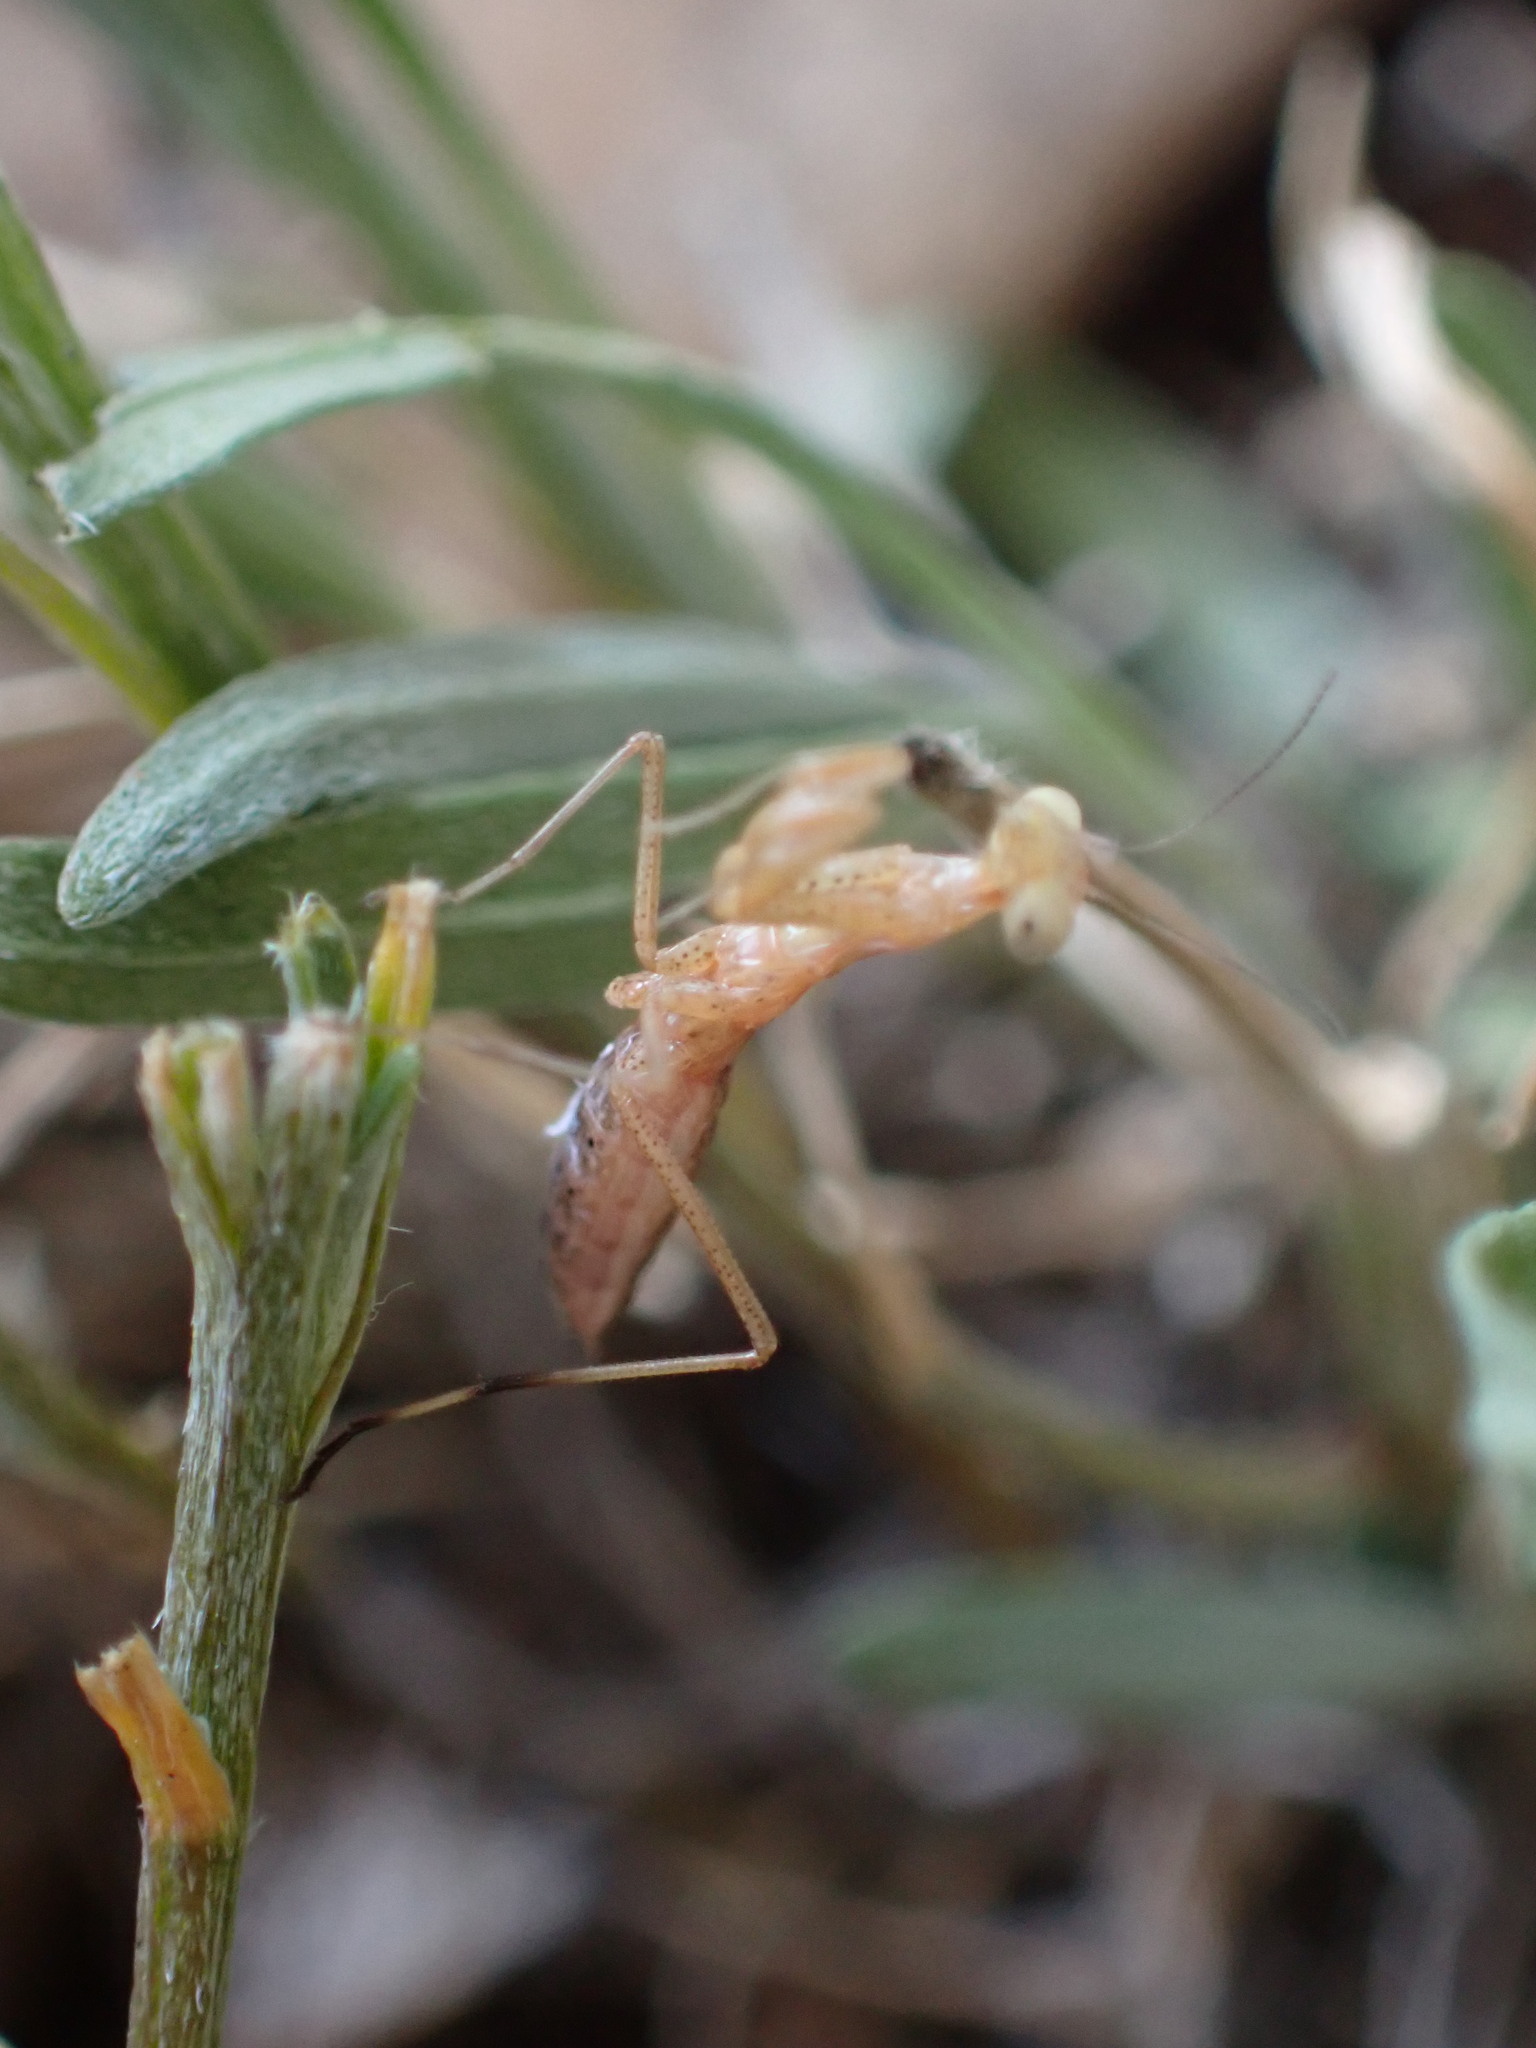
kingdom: Animalia
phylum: Arthropoda
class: Insecta
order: Mantodea
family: Eremiaphilidae
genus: Iris
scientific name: Iris oratoria
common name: Mediterranean mantis
